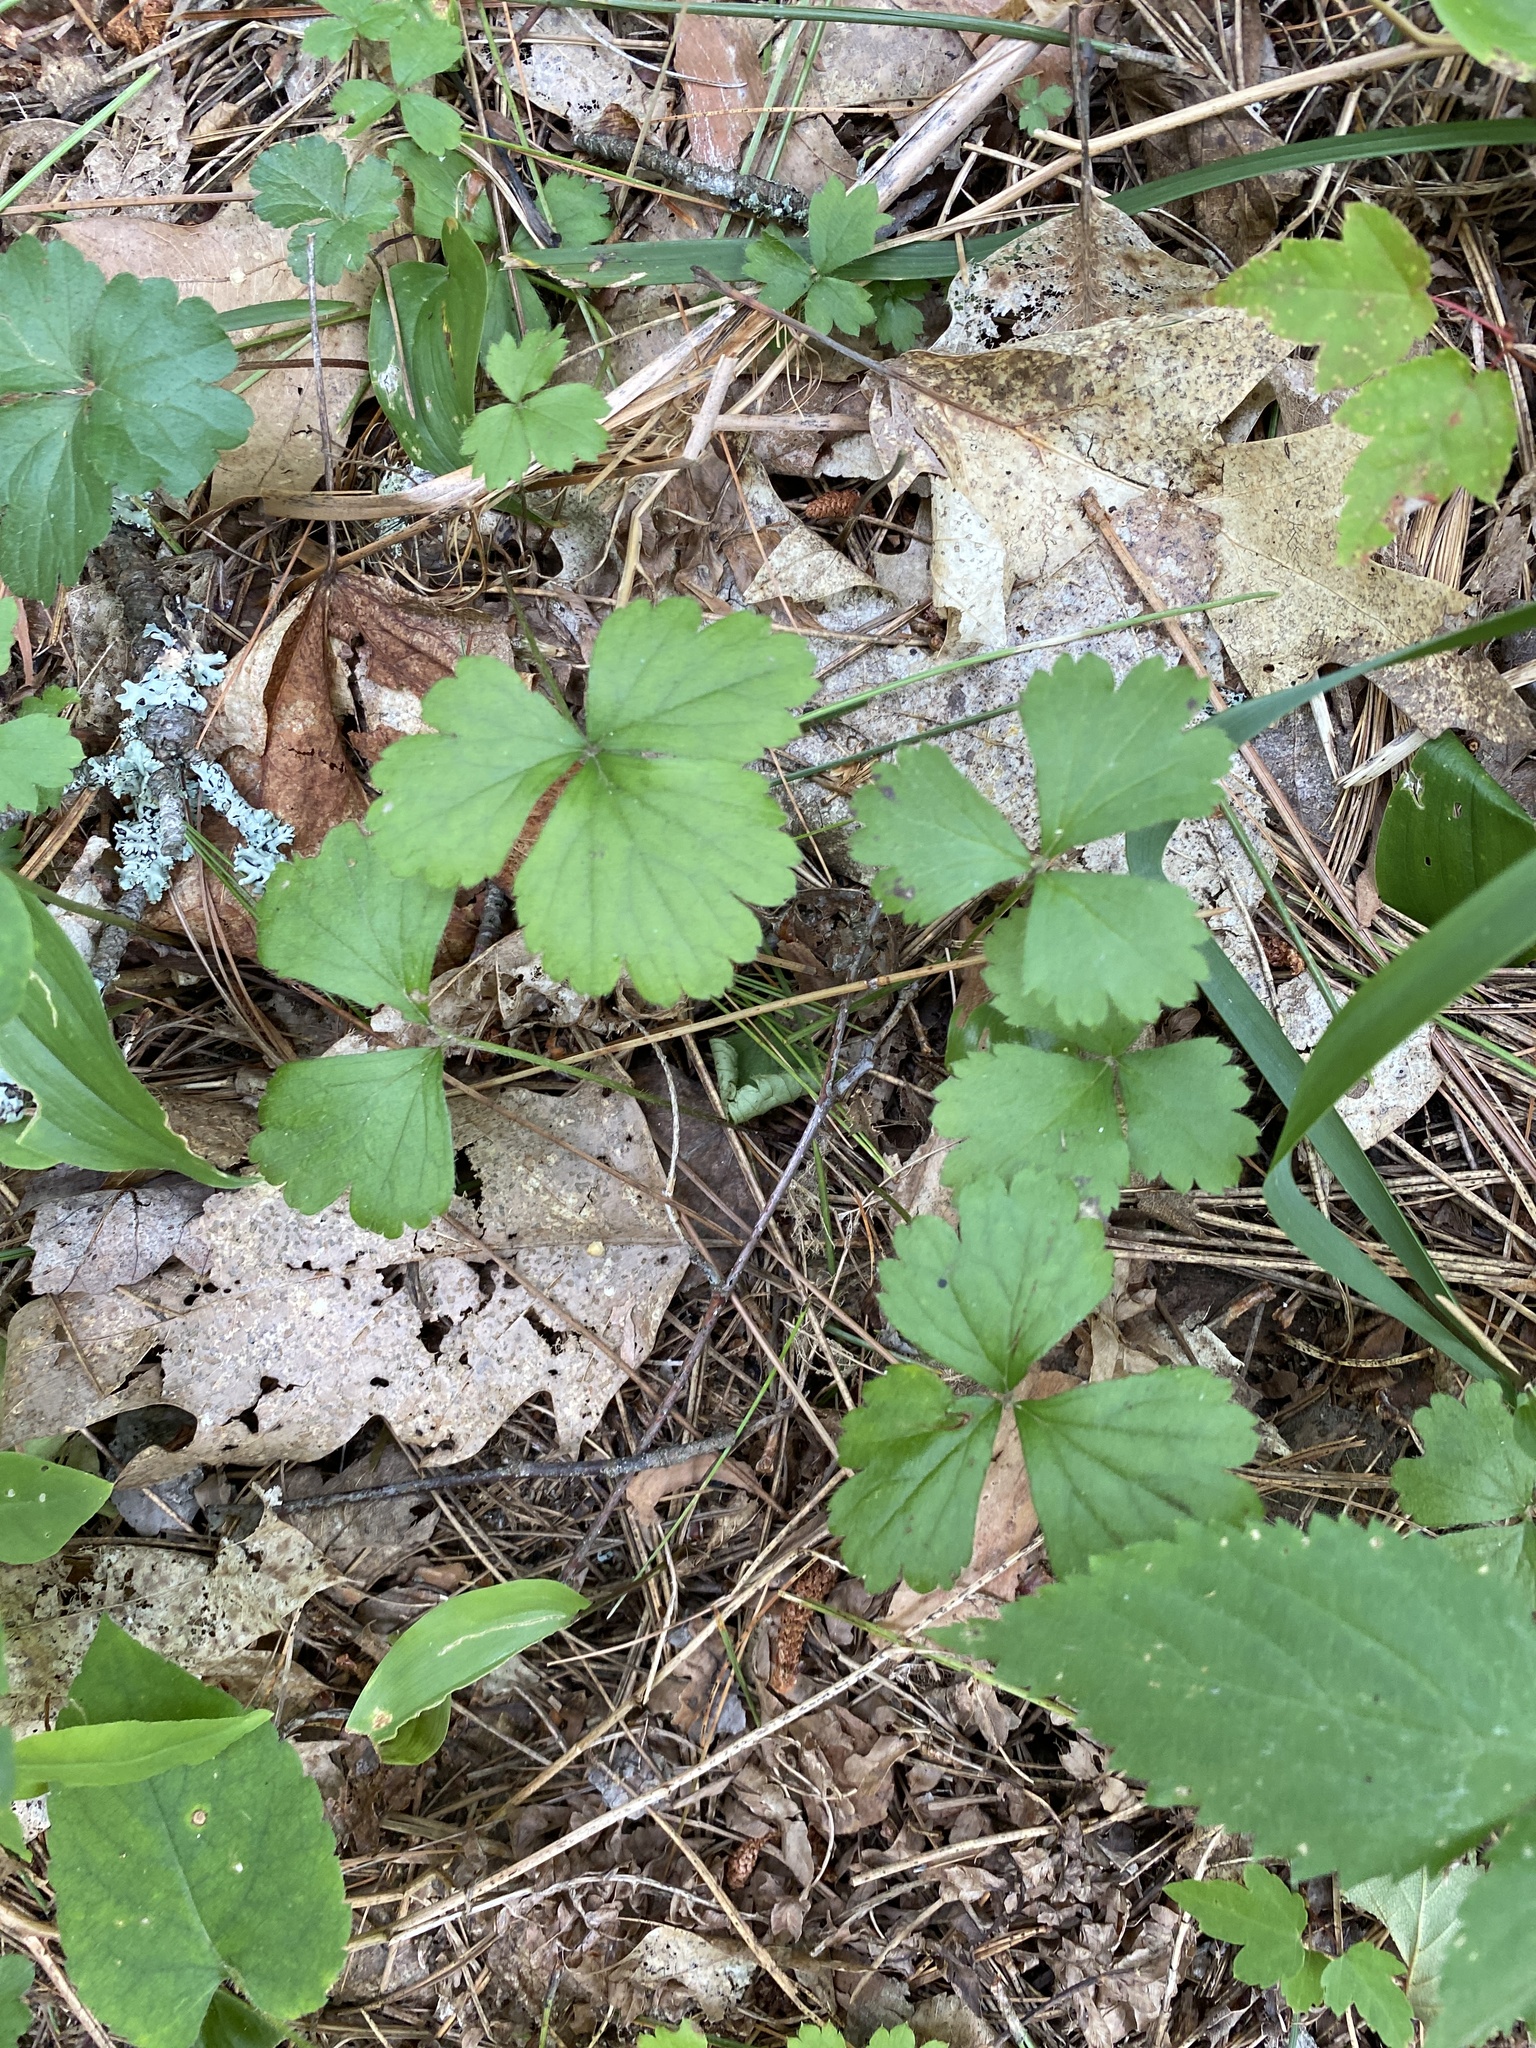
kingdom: Plantae
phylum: Tracheophyta
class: Magnoliopsida
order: Rosales
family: Rosaceae
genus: Geum
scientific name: Geum fragarioides
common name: Appalachian barren strawberry
